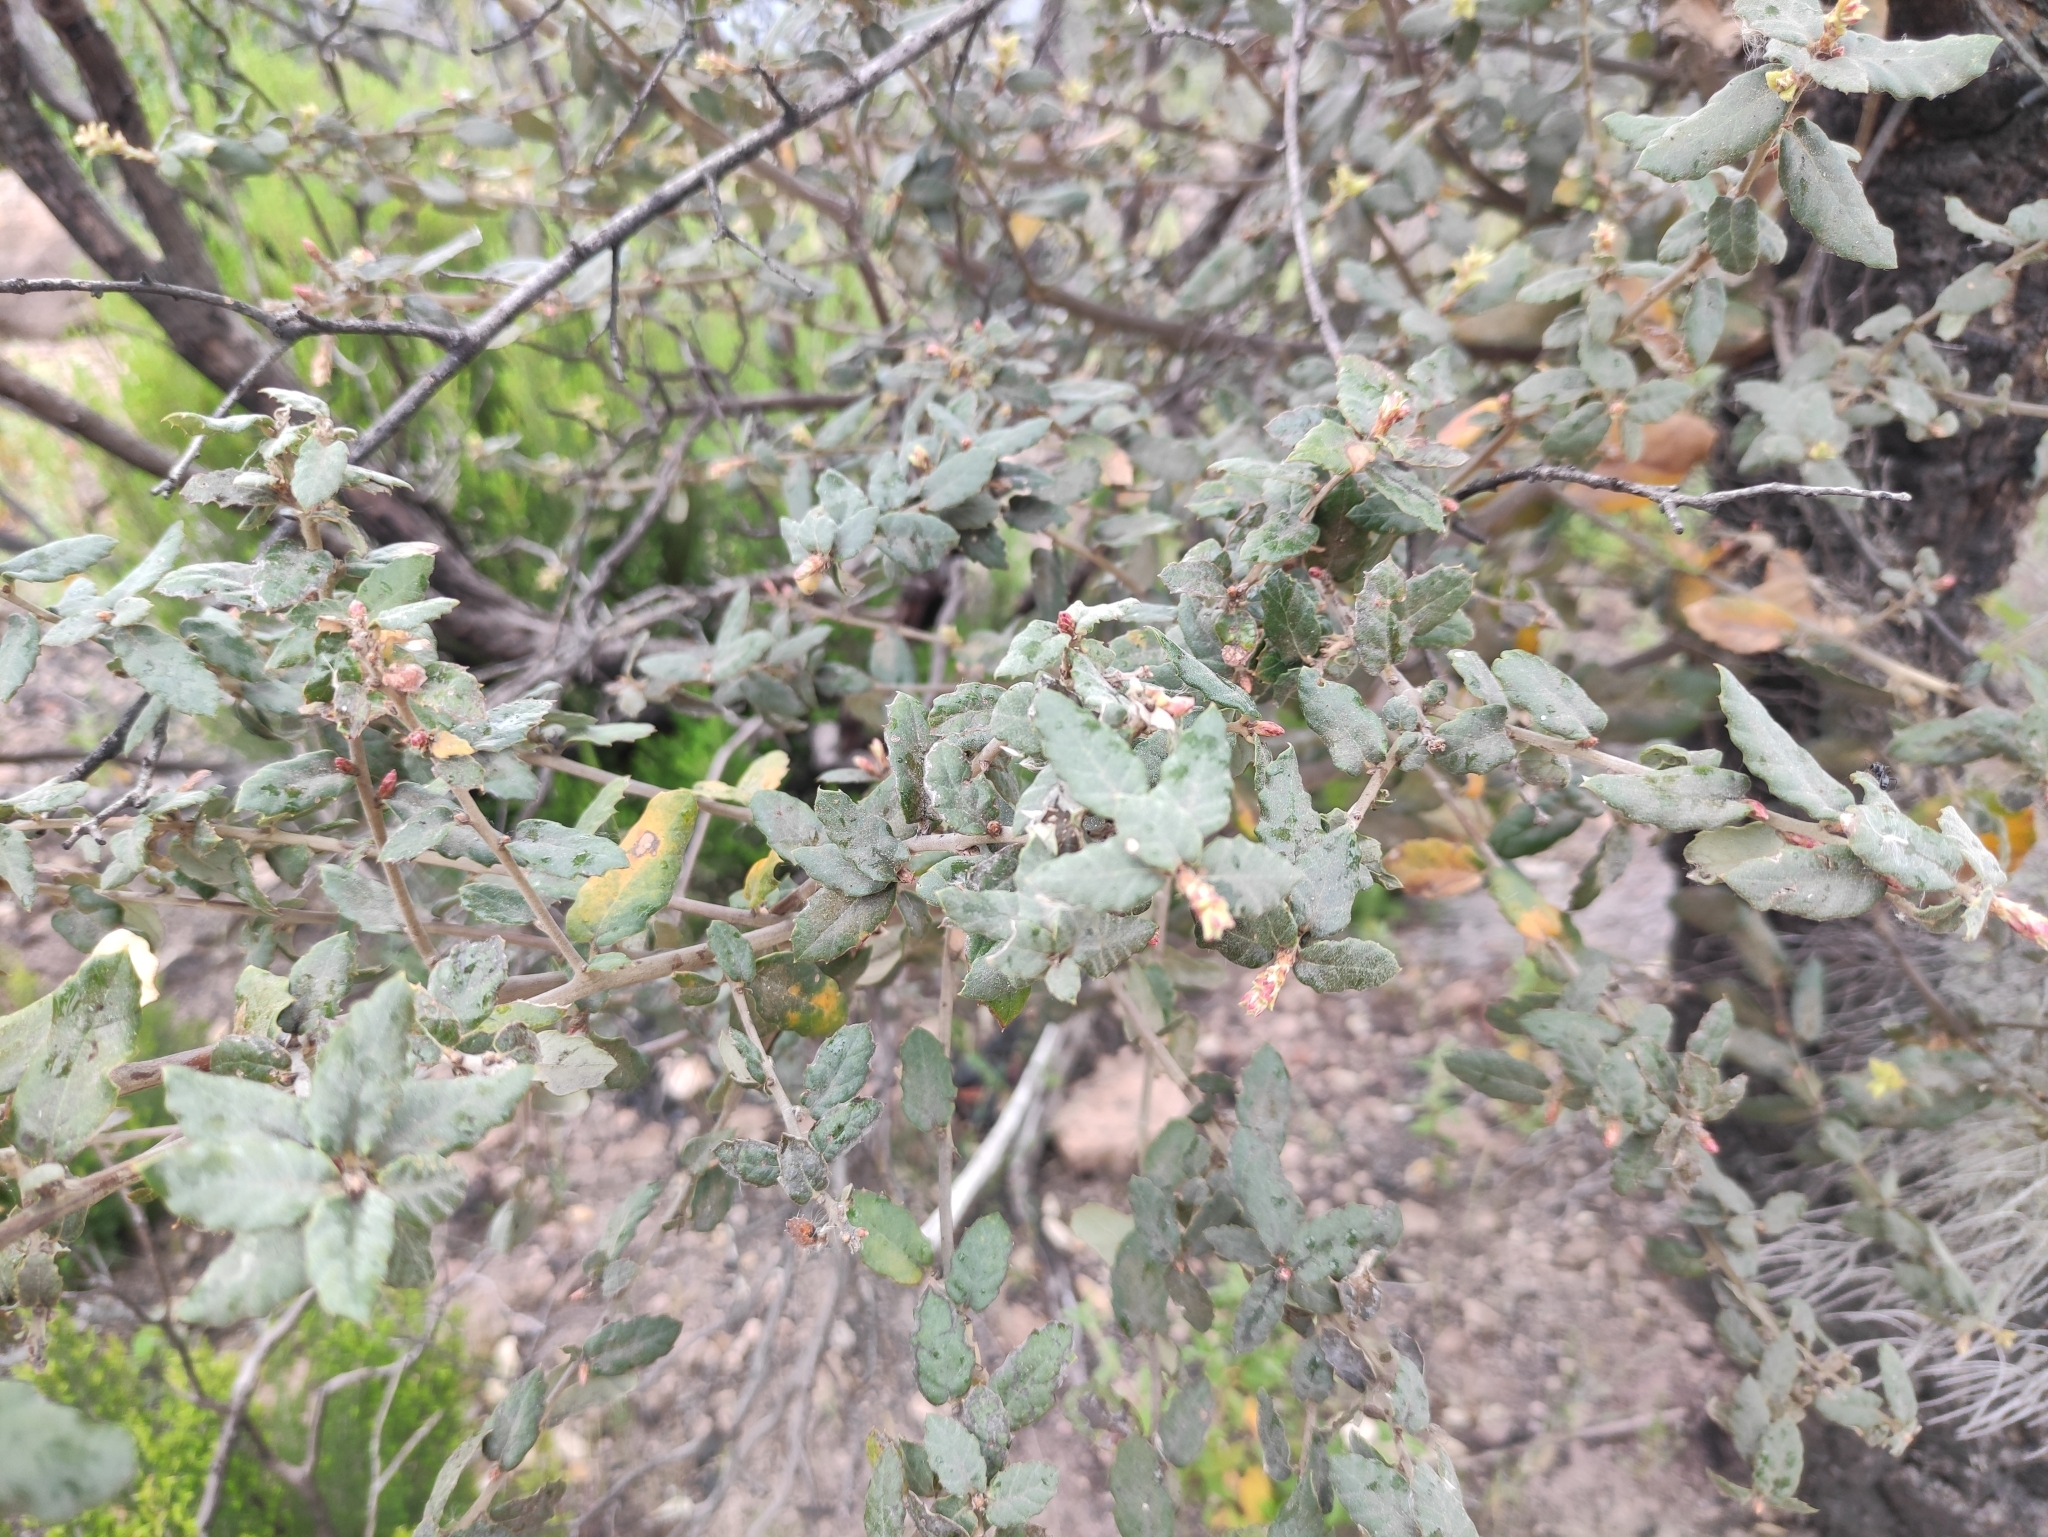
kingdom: Plantae
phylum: Tracheophyta
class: Magnoliopsida
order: Fagales
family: Fagaceae
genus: Quercus
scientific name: Quercus suber
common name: Cork oak
